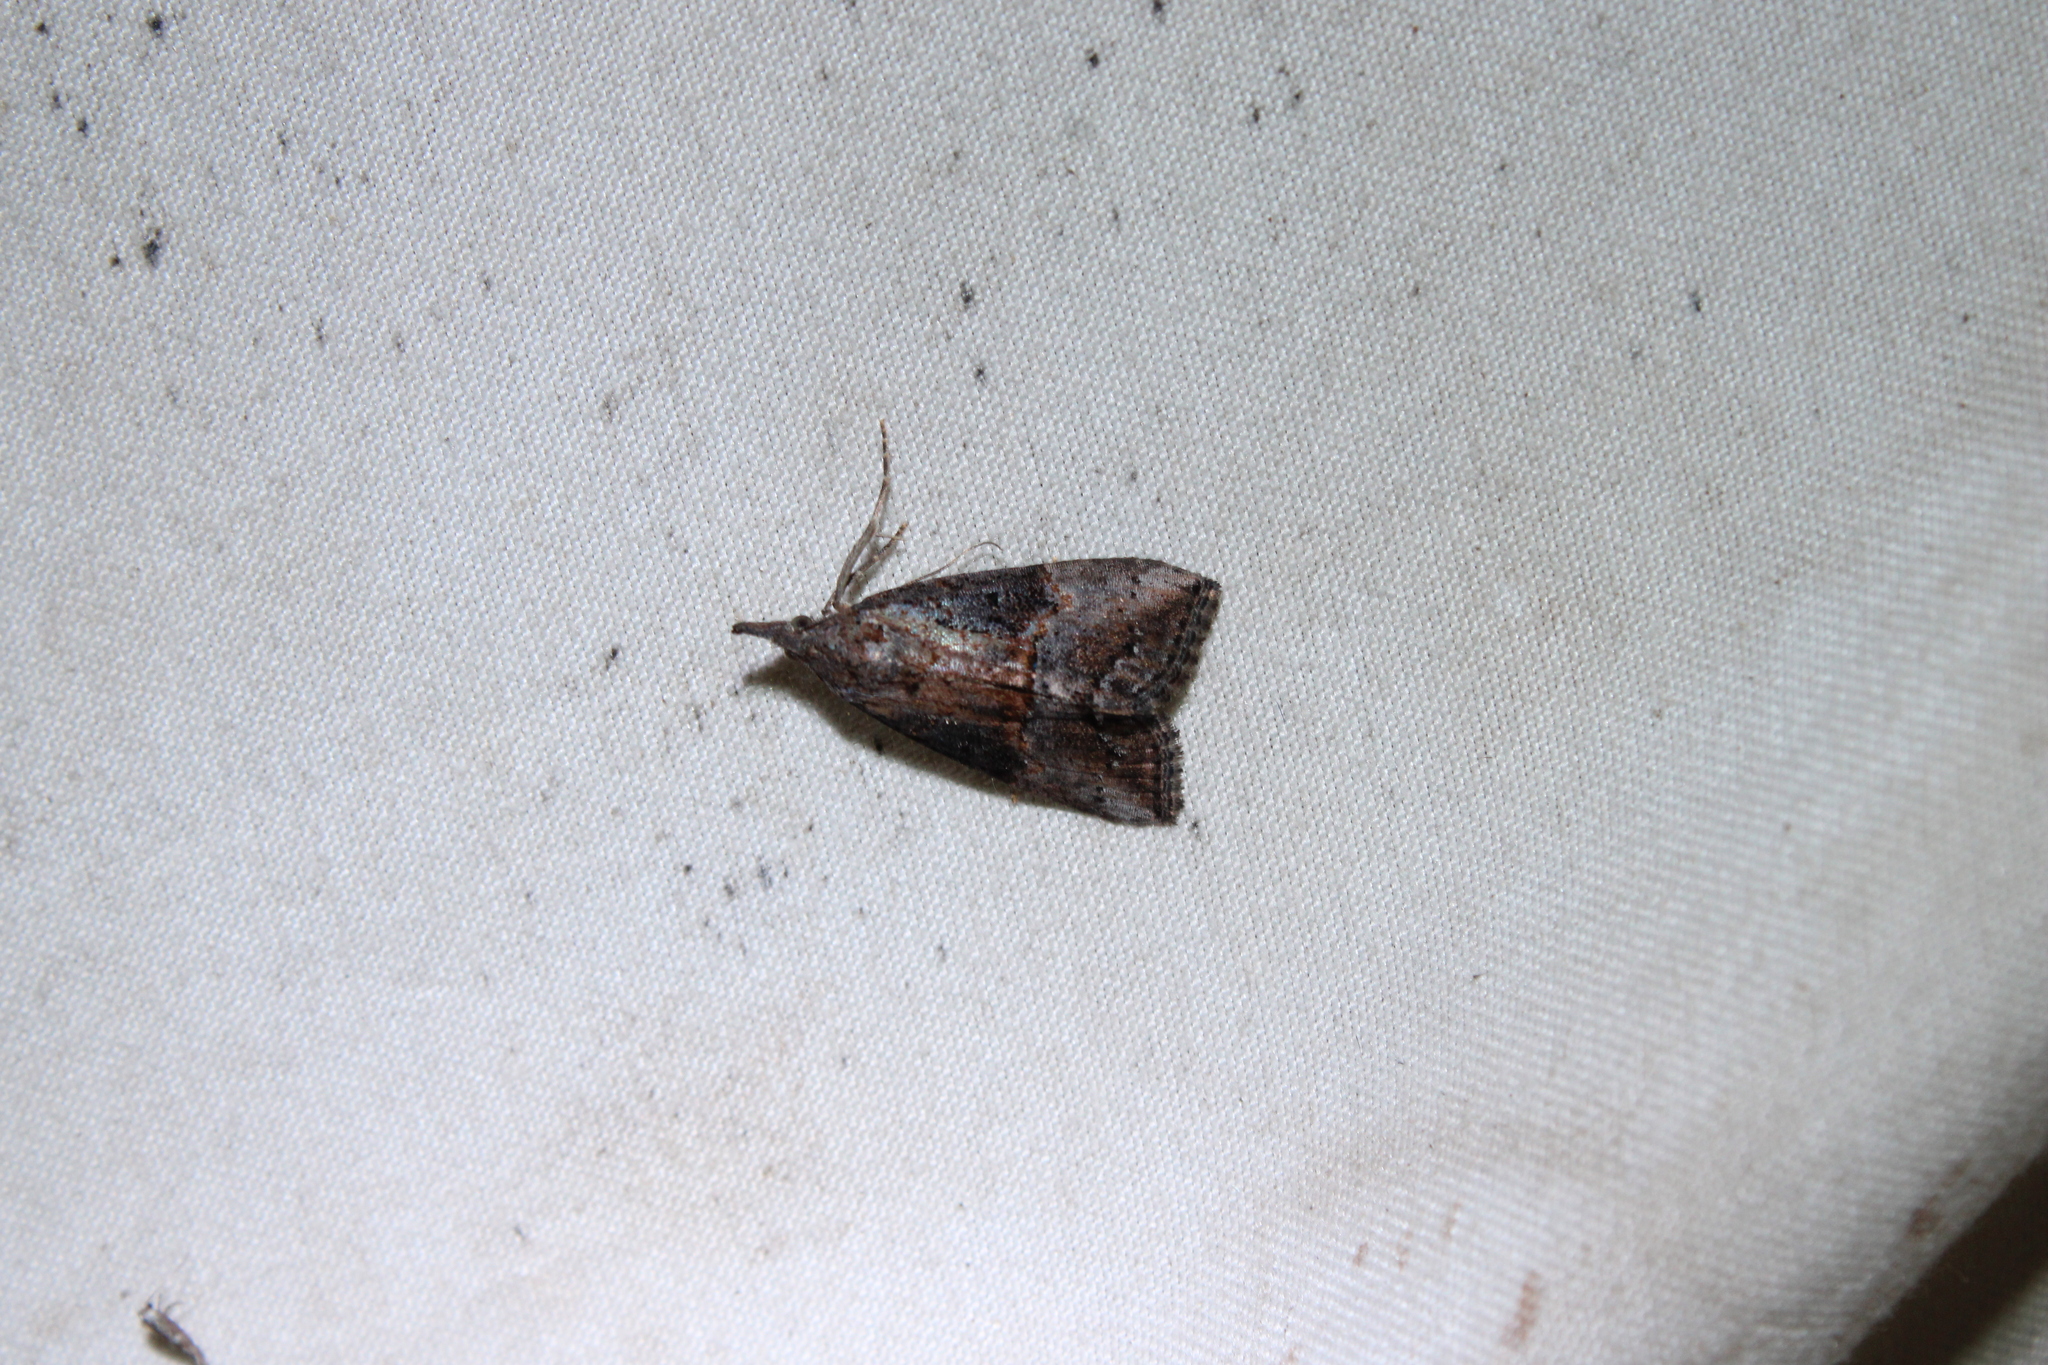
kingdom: Animalia
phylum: Arthropoda
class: Insecta
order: Lepidoptera
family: Erebidae
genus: Hypena
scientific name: Hypena scabra
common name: Green cloverworm
